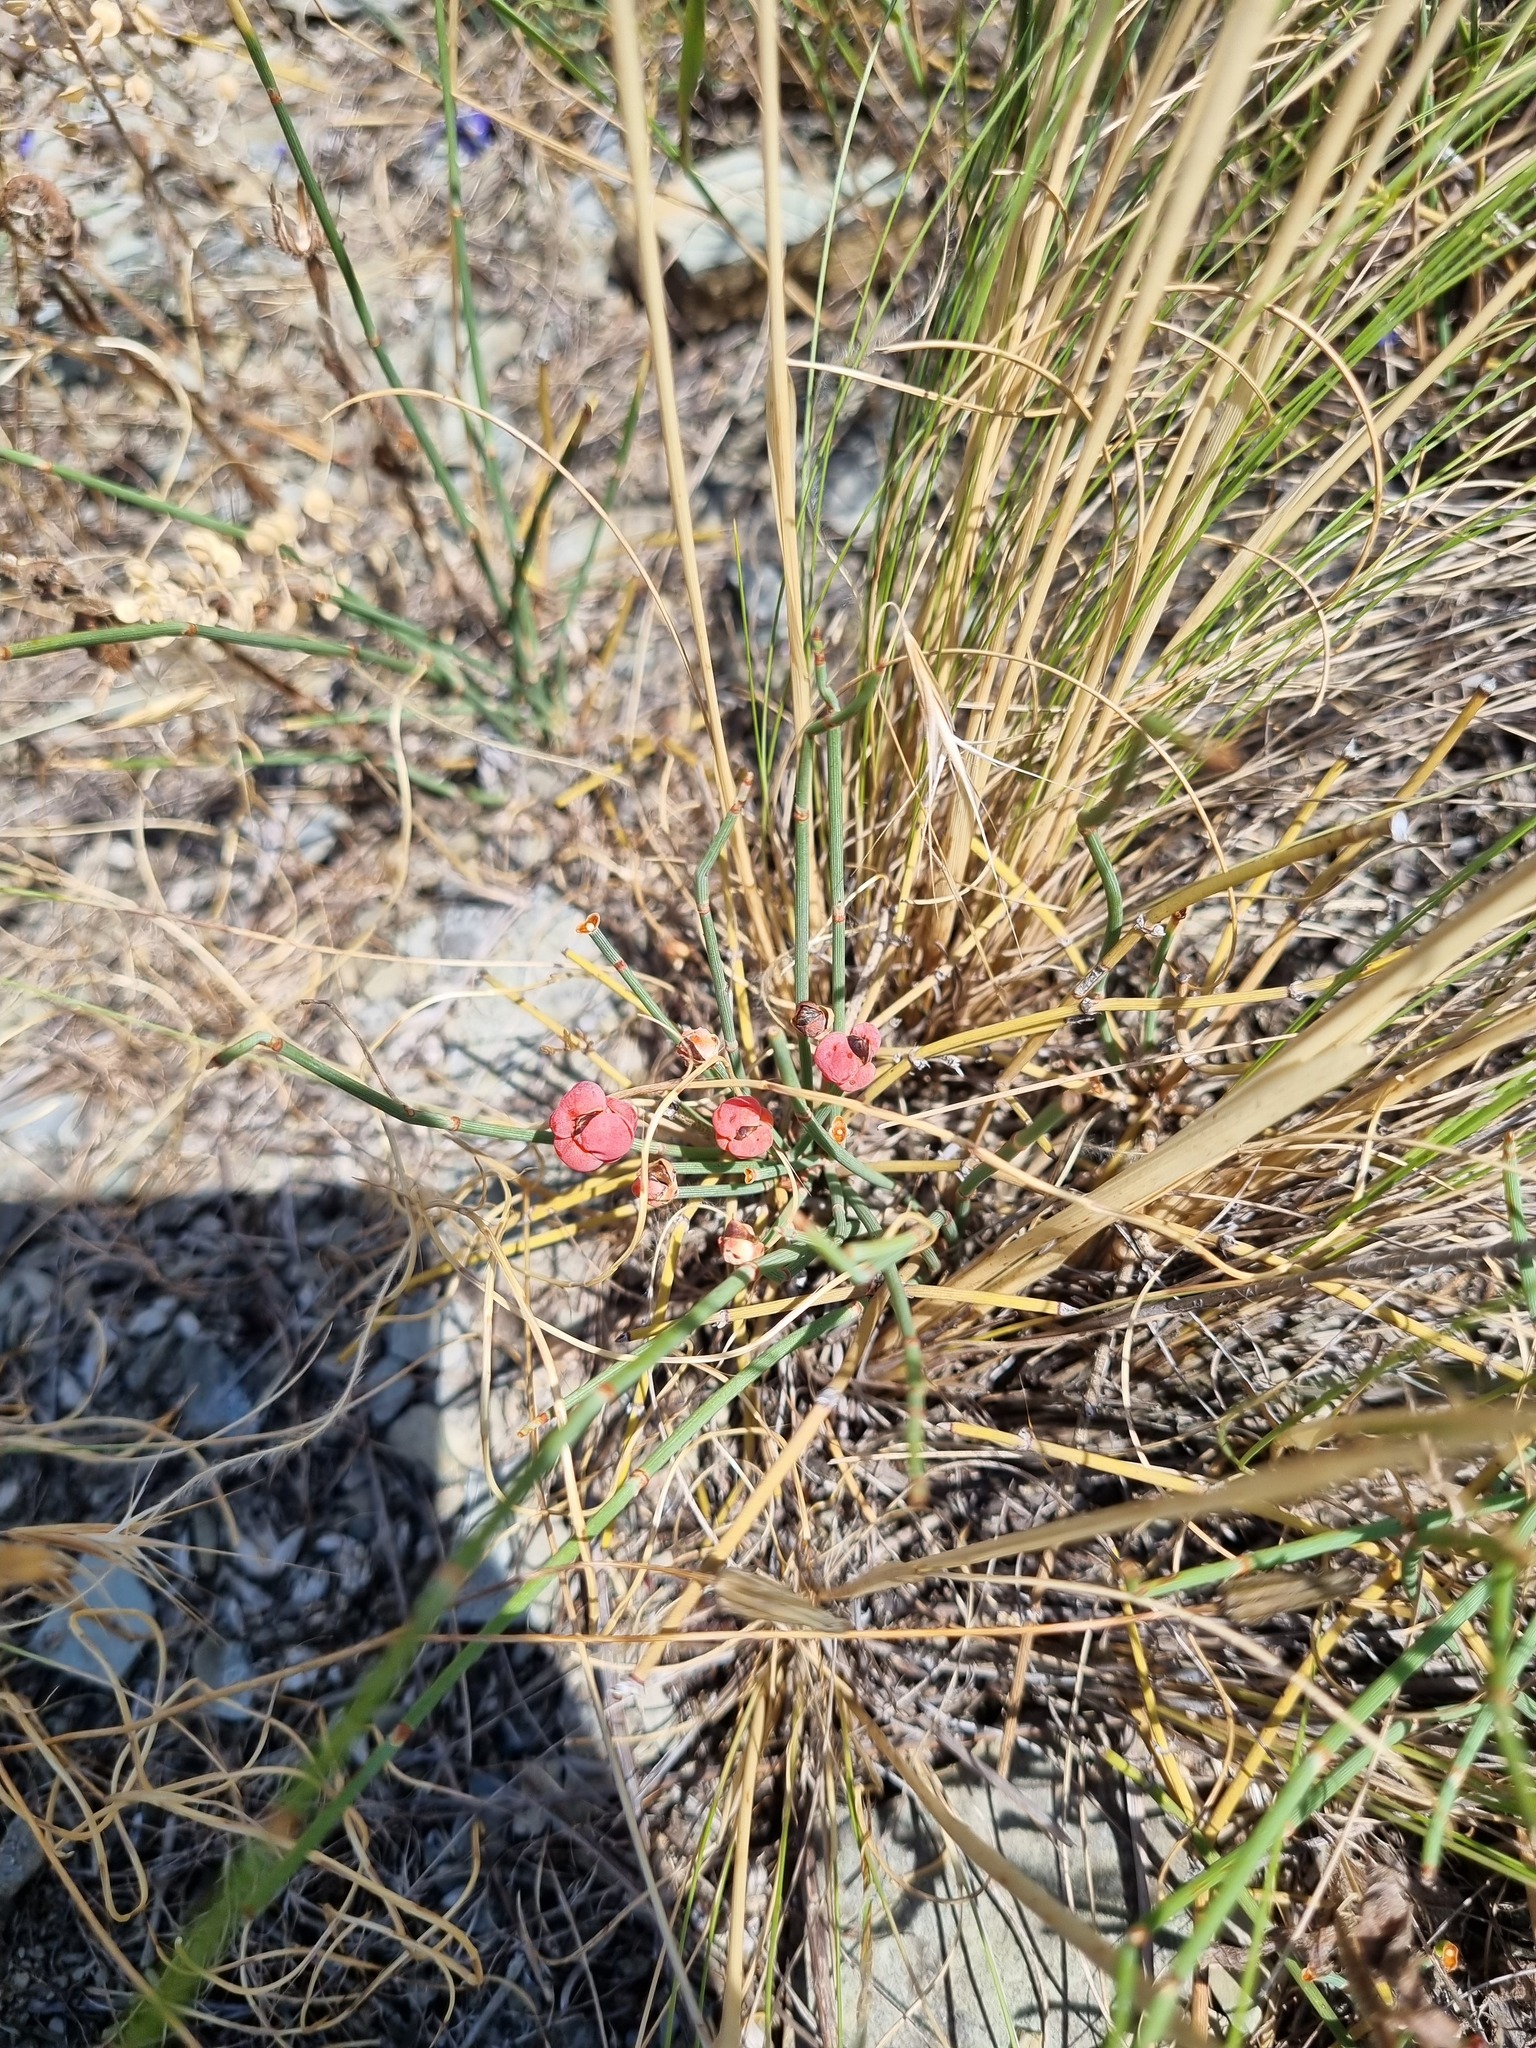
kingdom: Plantae
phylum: Tracheophyta
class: Gnetopsida
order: Ephedrales
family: Ephedraceae
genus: Ephedra
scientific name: Ephedra distachya
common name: Sea grape
